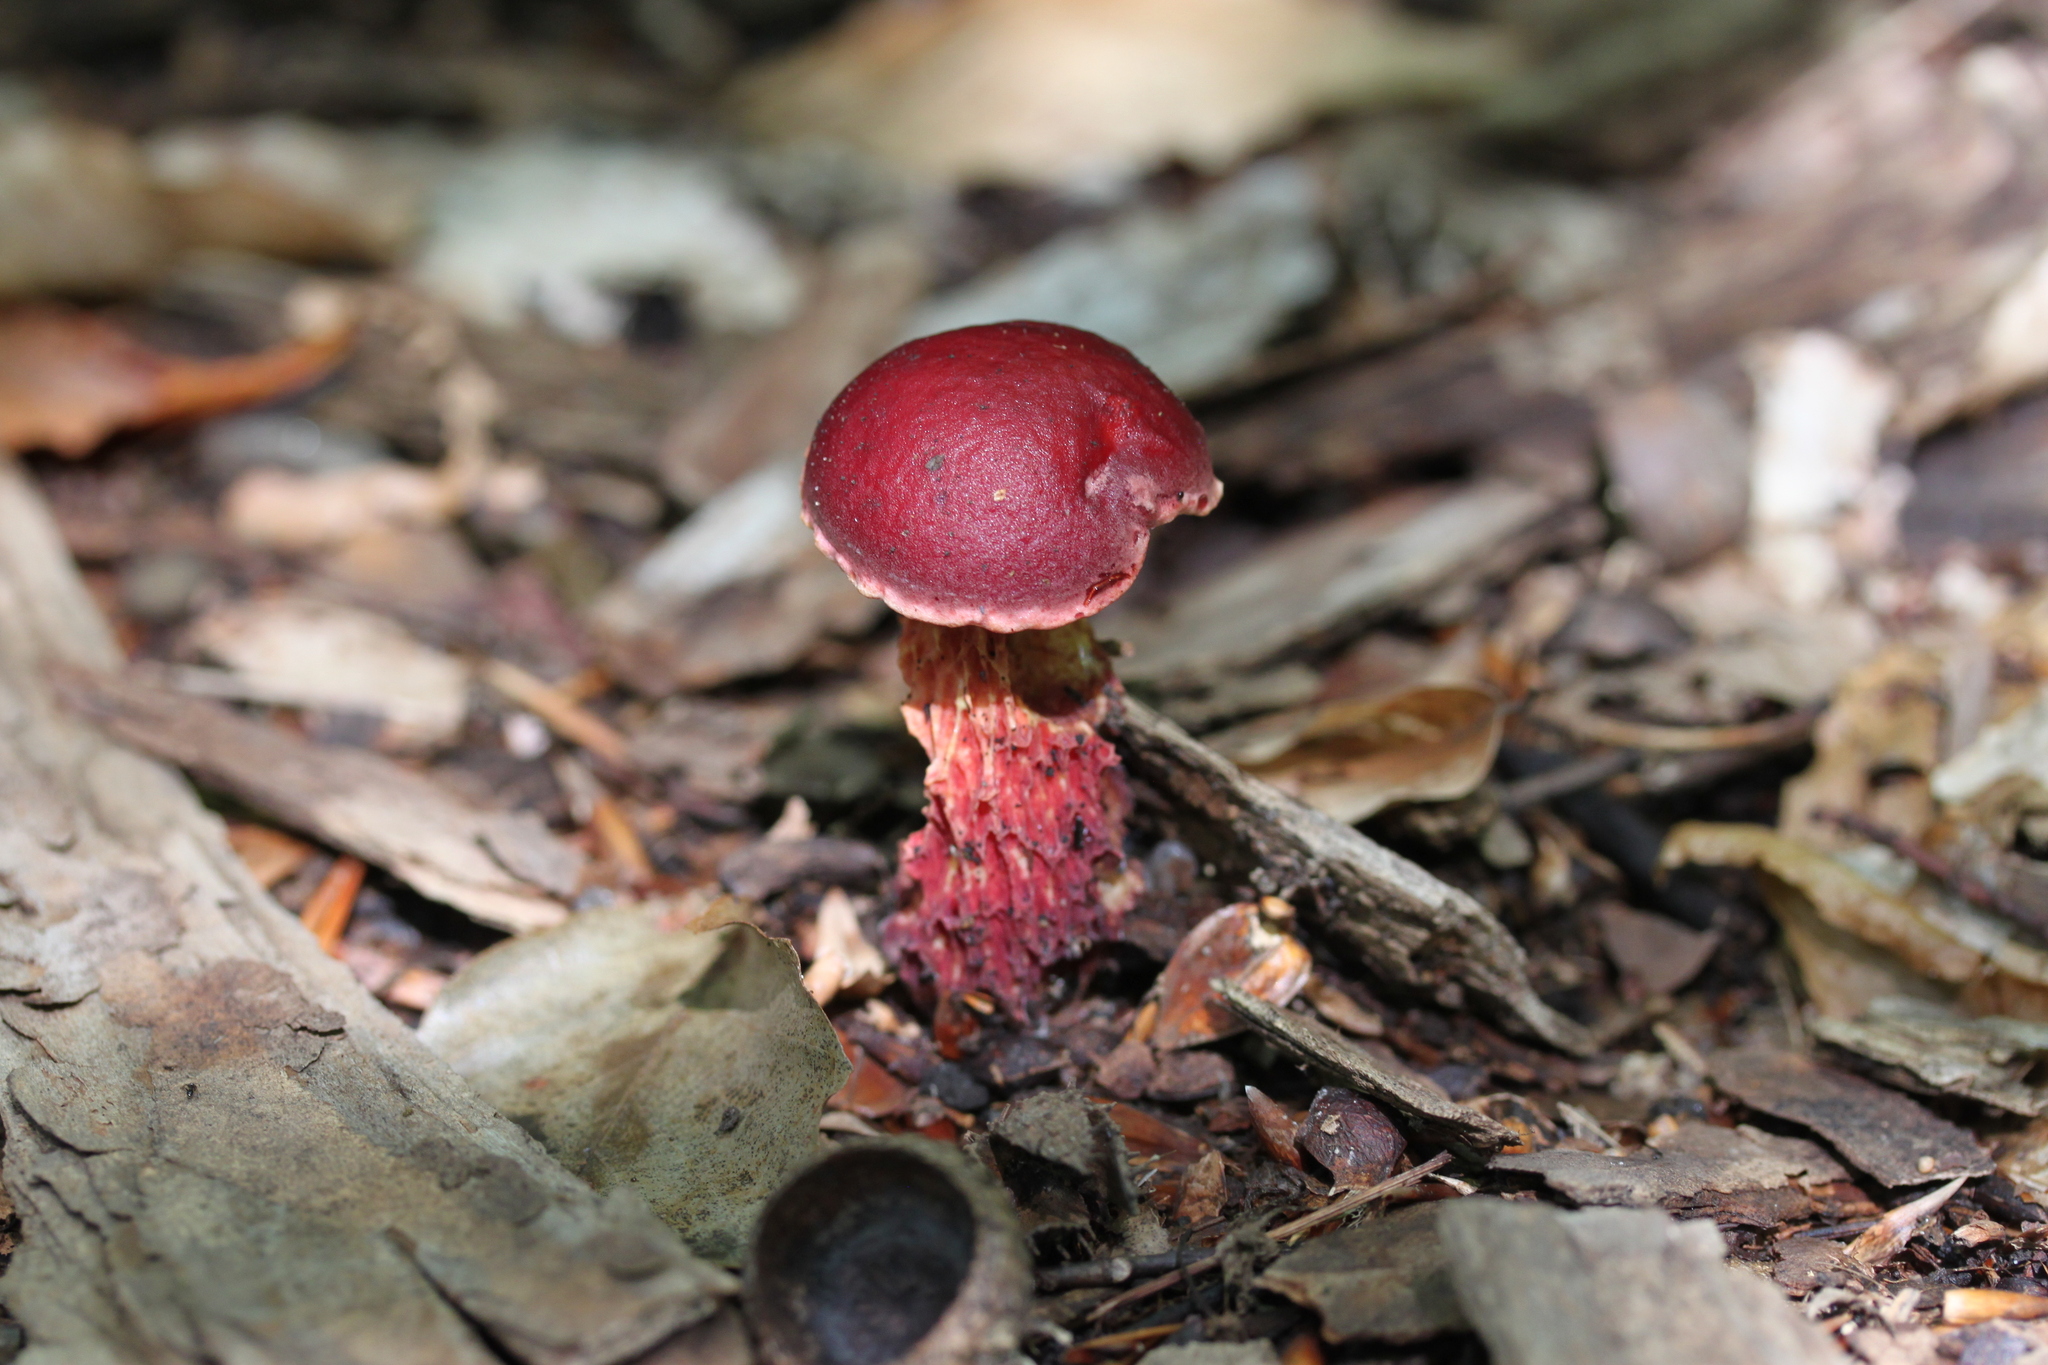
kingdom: Fungi
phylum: Basidiomycota
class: Agaricomycetes
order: Boletales
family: Boletaceae
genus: Butyriboletus
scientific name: Butyriboletus frostii
